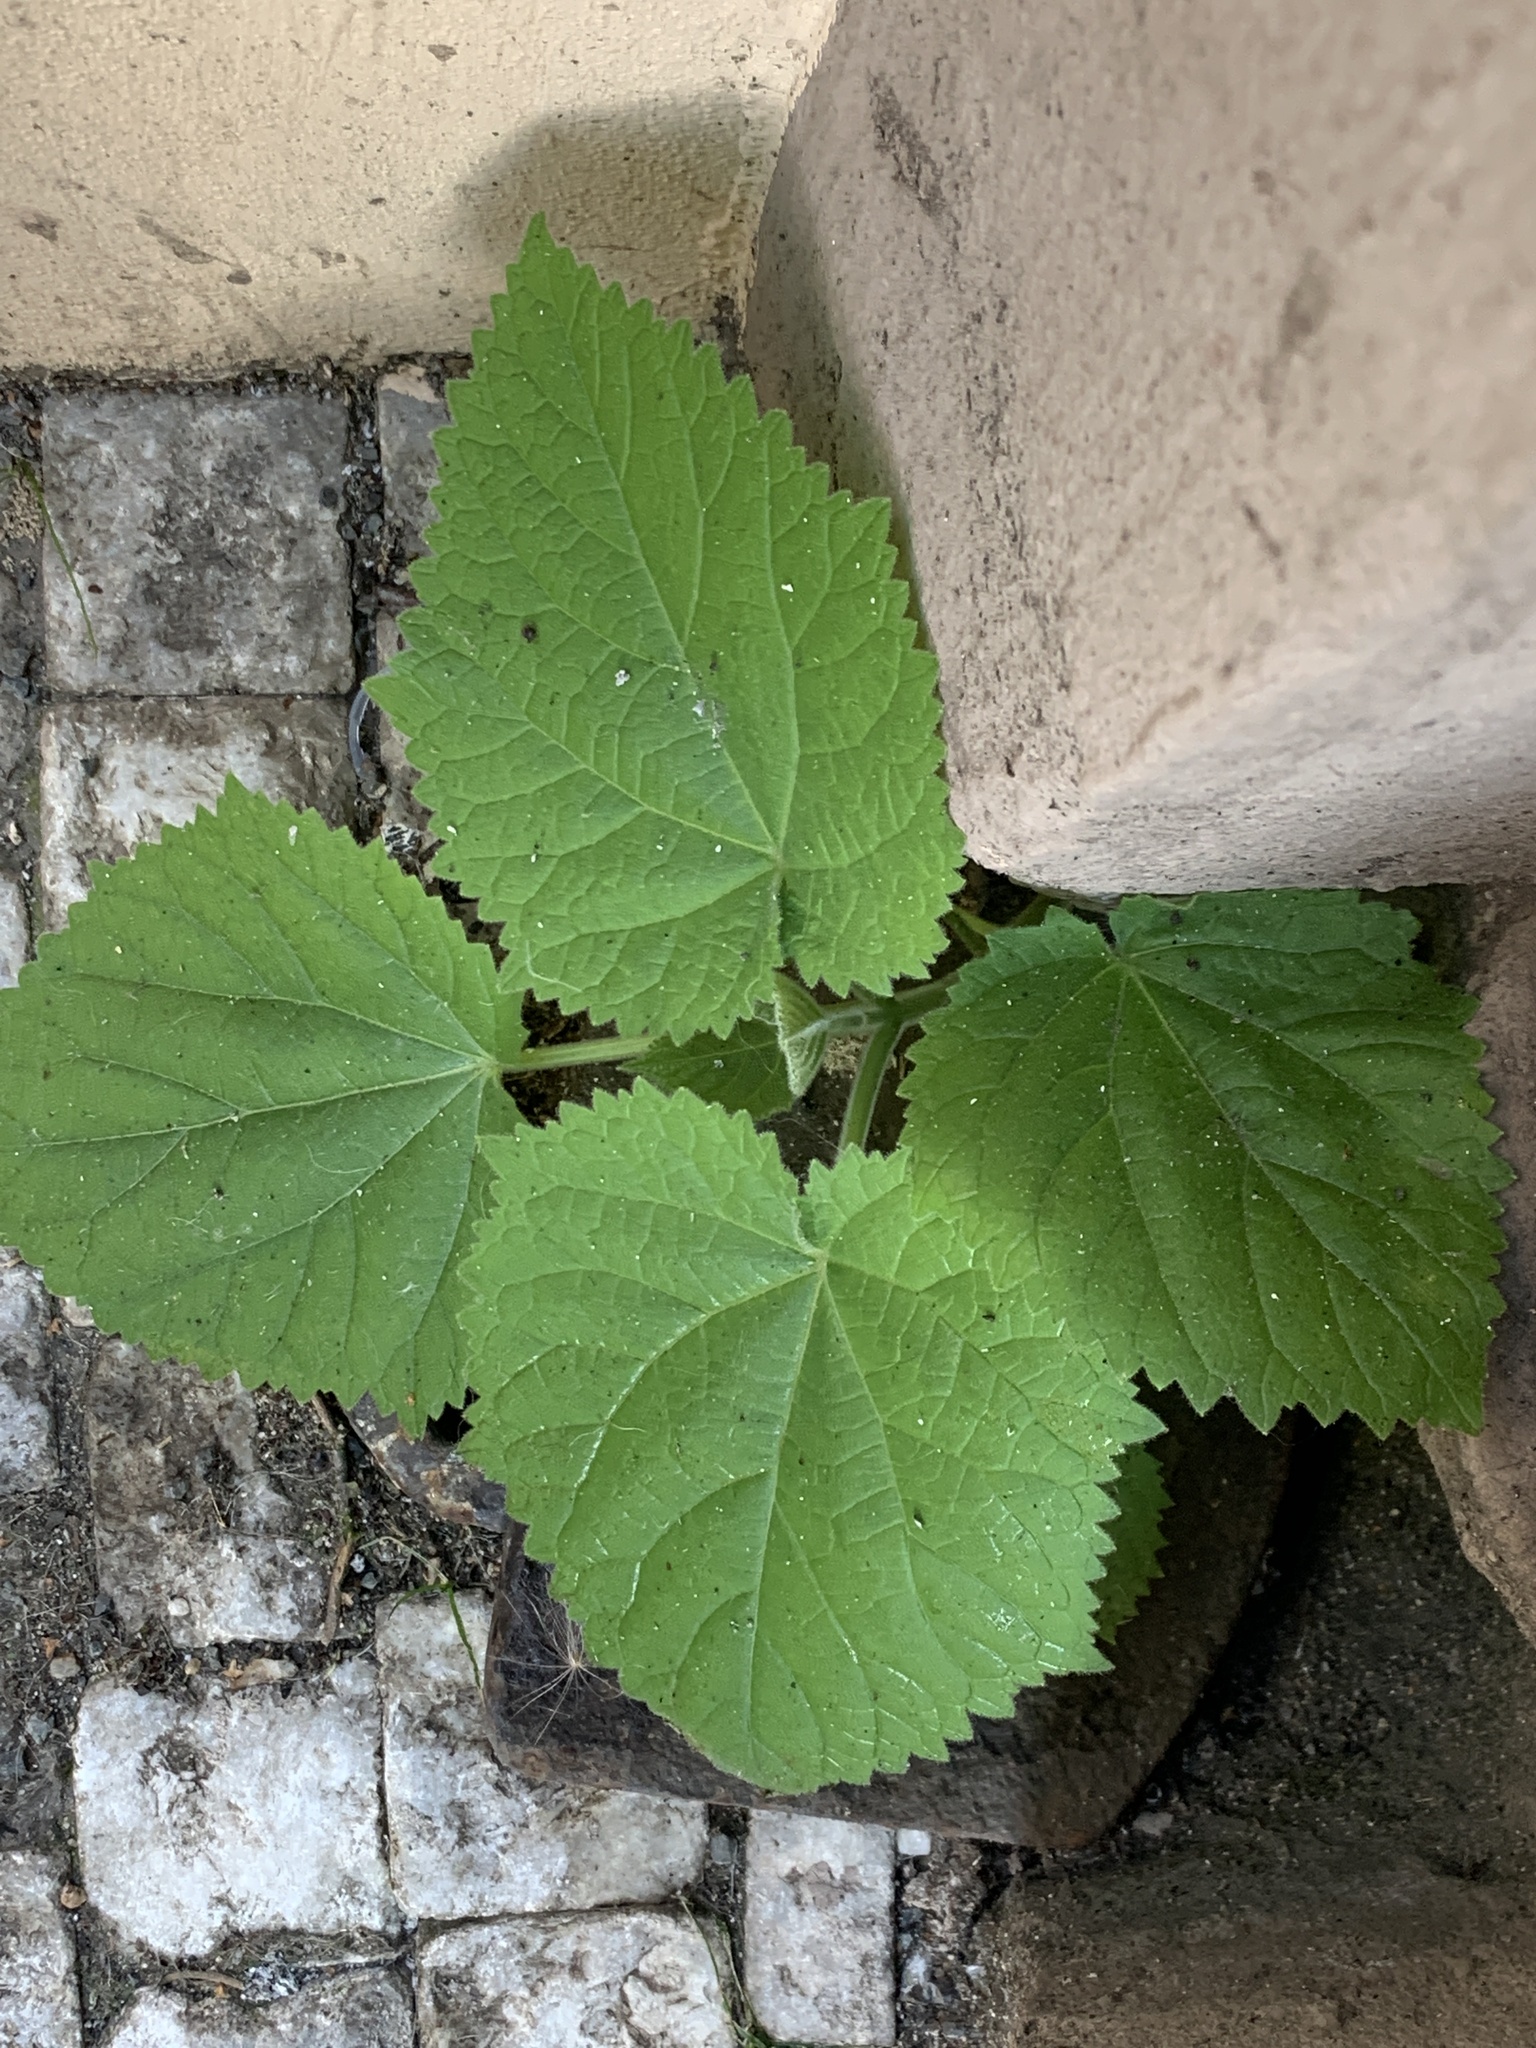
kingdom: Plantae
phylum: Tracheophyta
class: Magnoliopsida
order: Lamiales
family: Paulowniaceae
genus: Paulownia
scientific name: Paulownia tomentosa
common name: Foxglove-tree
